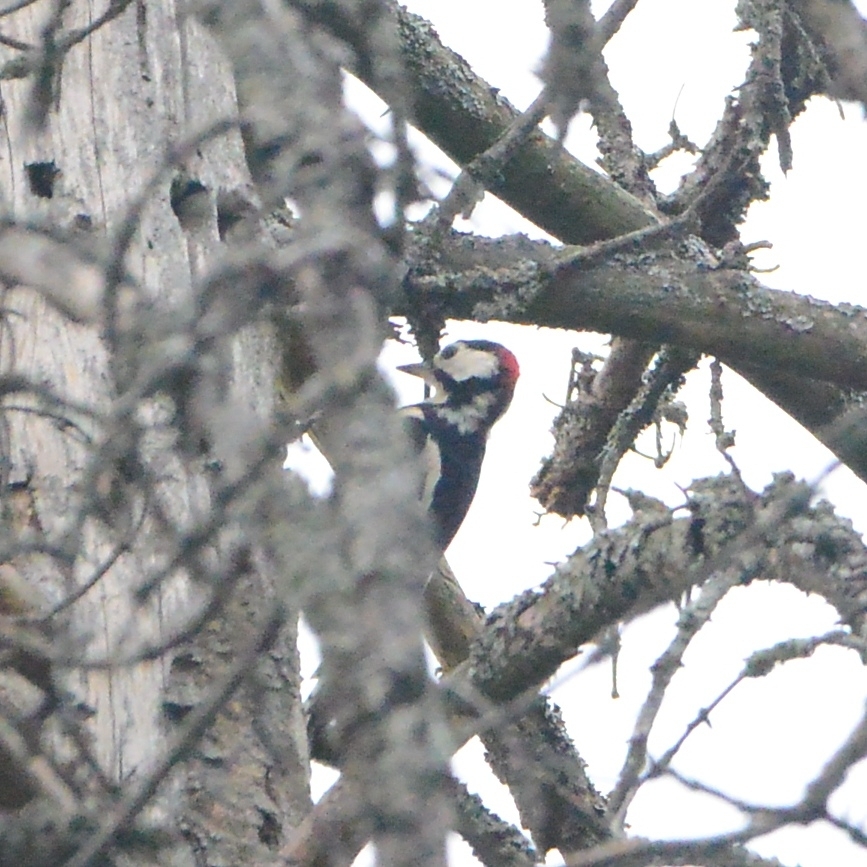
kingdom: Animalia
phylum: Chordata
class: Aves
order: Piciformes
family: Picidae
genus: Dendrocopos
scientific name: Dendrocopos major
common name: Great spotted woodpecker
